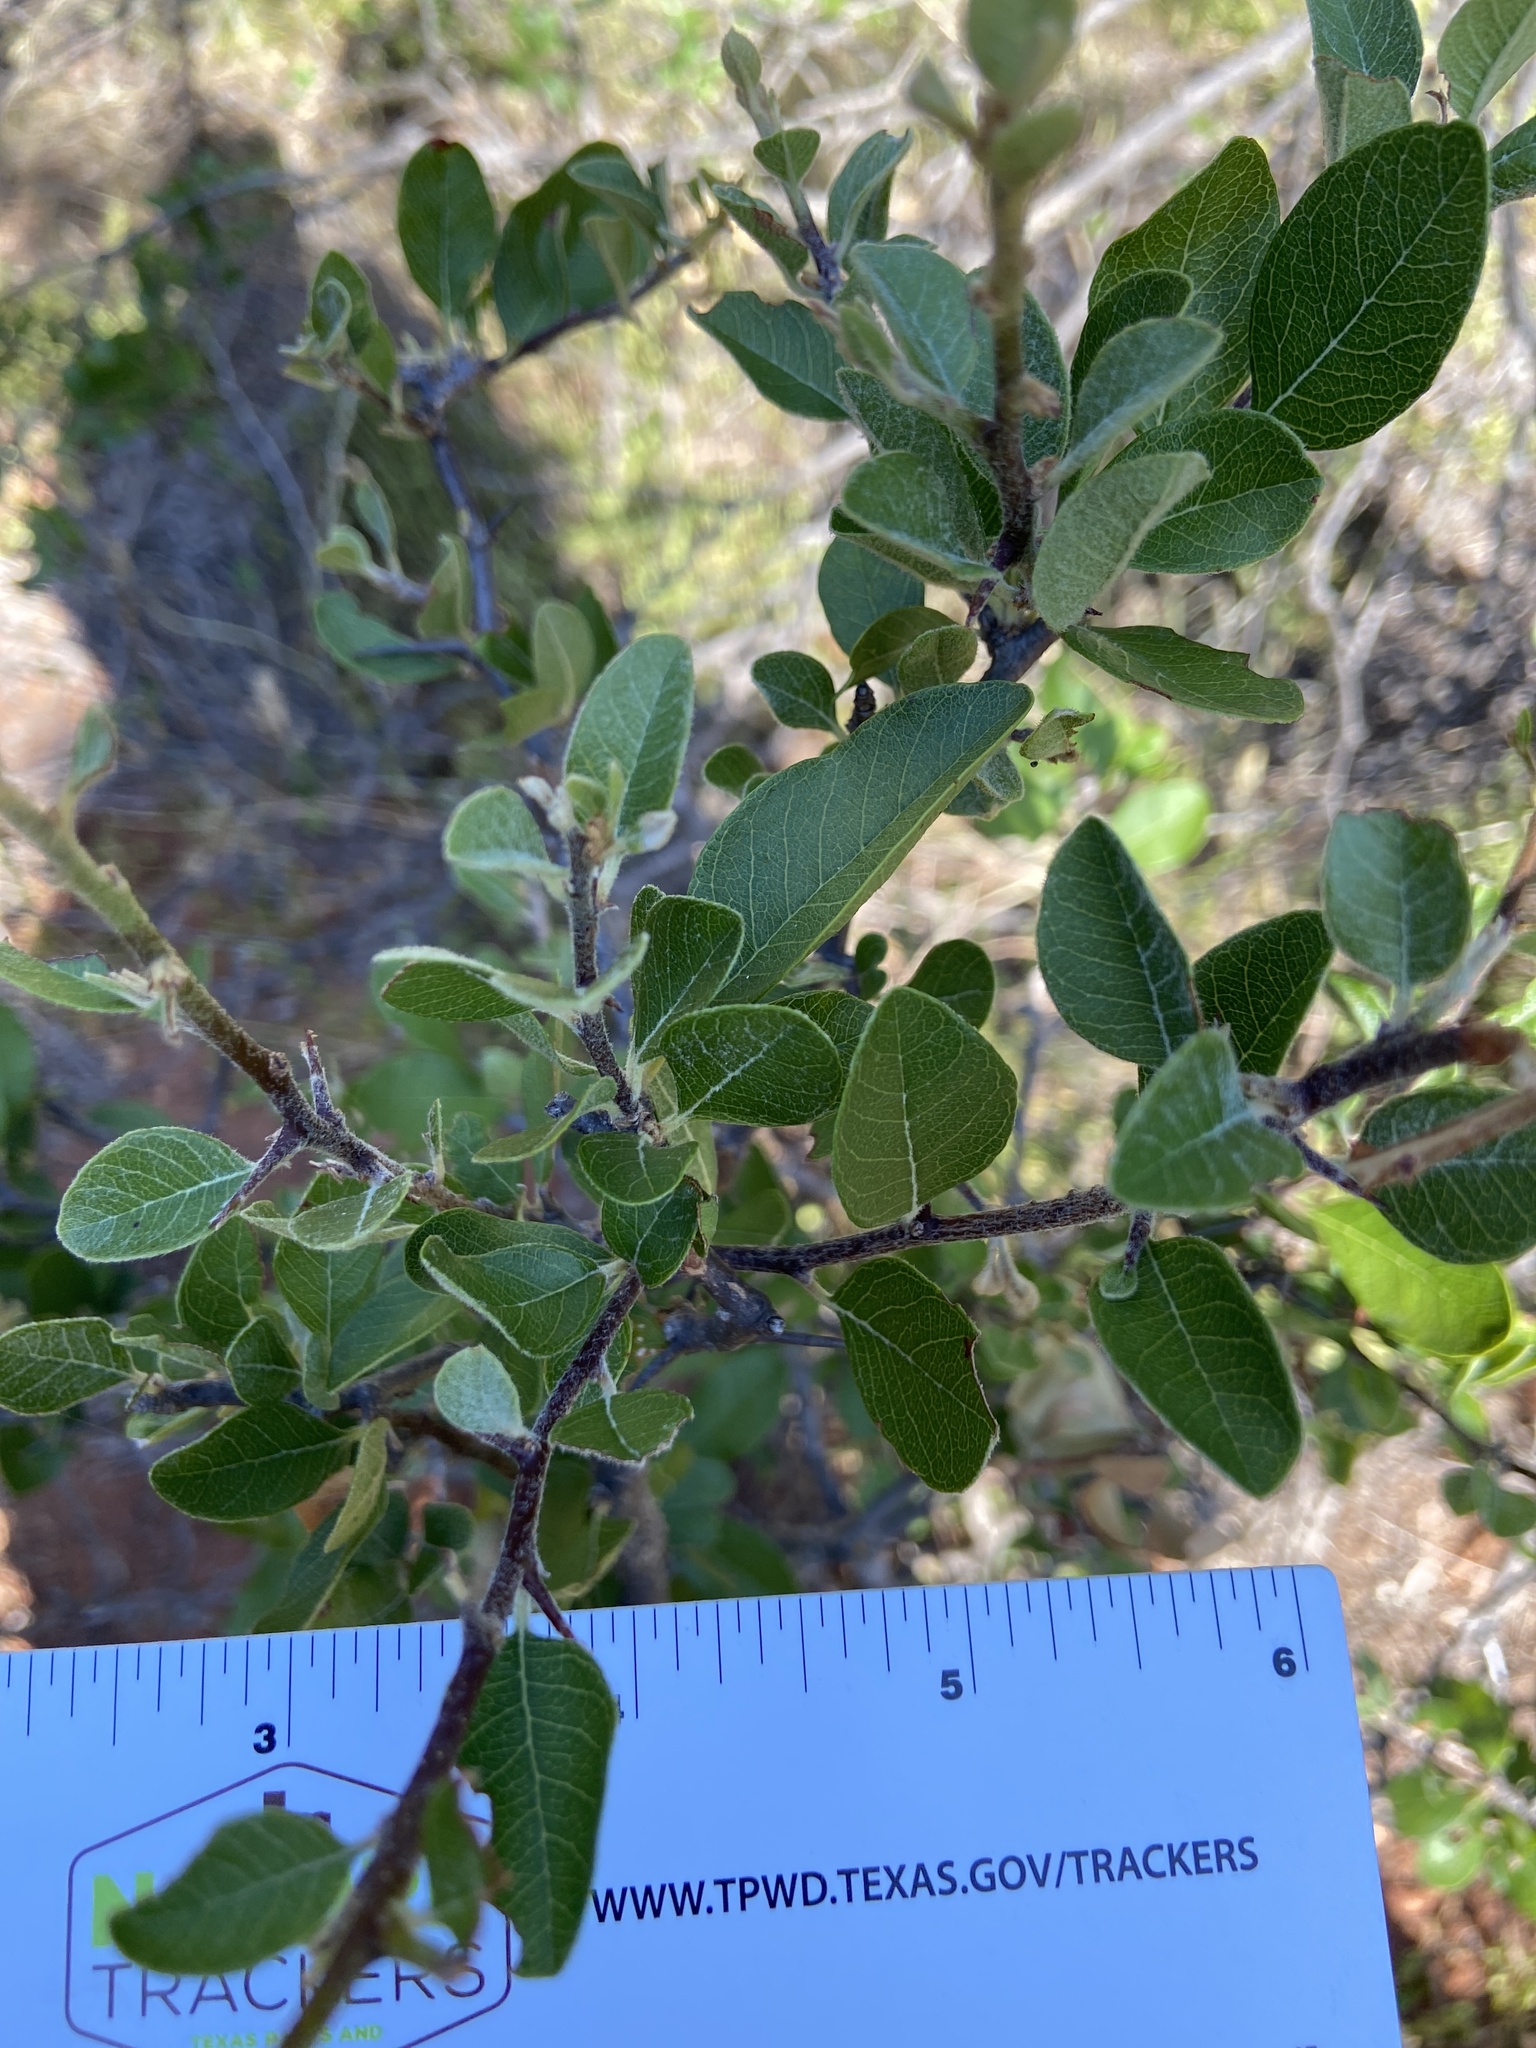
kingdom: Plantae
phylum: Tracheophyta
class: Magnoliopsida
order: Ericales
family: Sapotaceae
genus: Sideroxylon
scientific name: Sideroxylon lanuginosum
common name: Chittamwood
